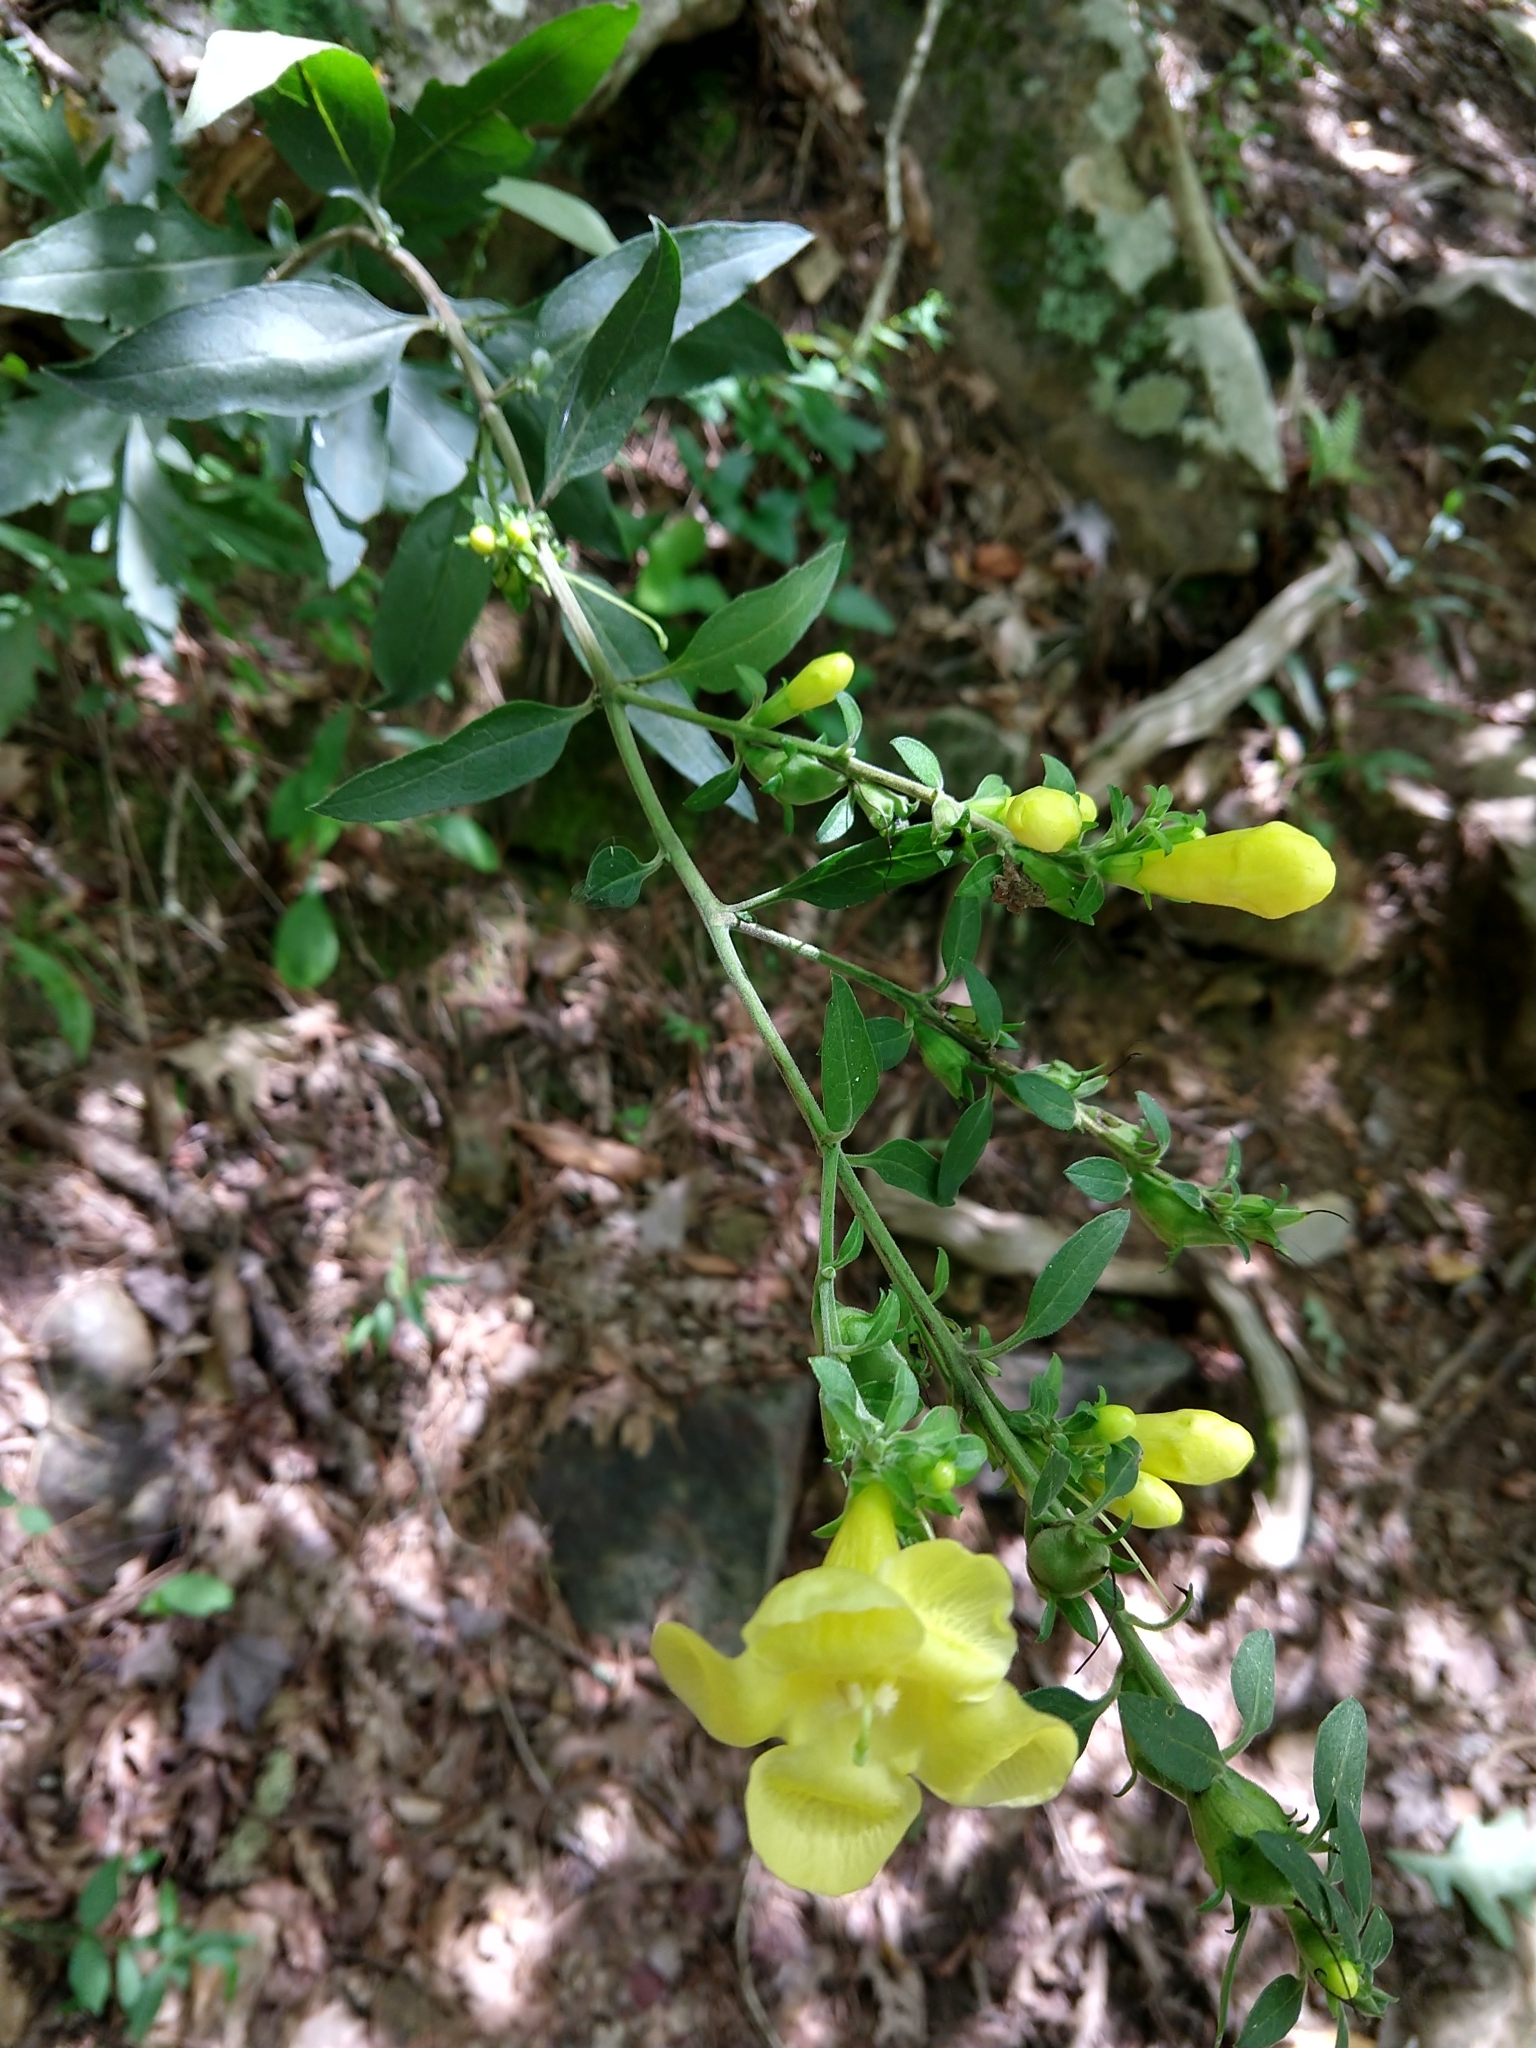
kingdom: Plantae
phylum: Tracheophyta
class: Magnoliopsida
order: Lamiales
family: Orobanchaceae
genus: Aureolaria
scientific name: Aureolaria virginica
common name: Downy false foxglove
